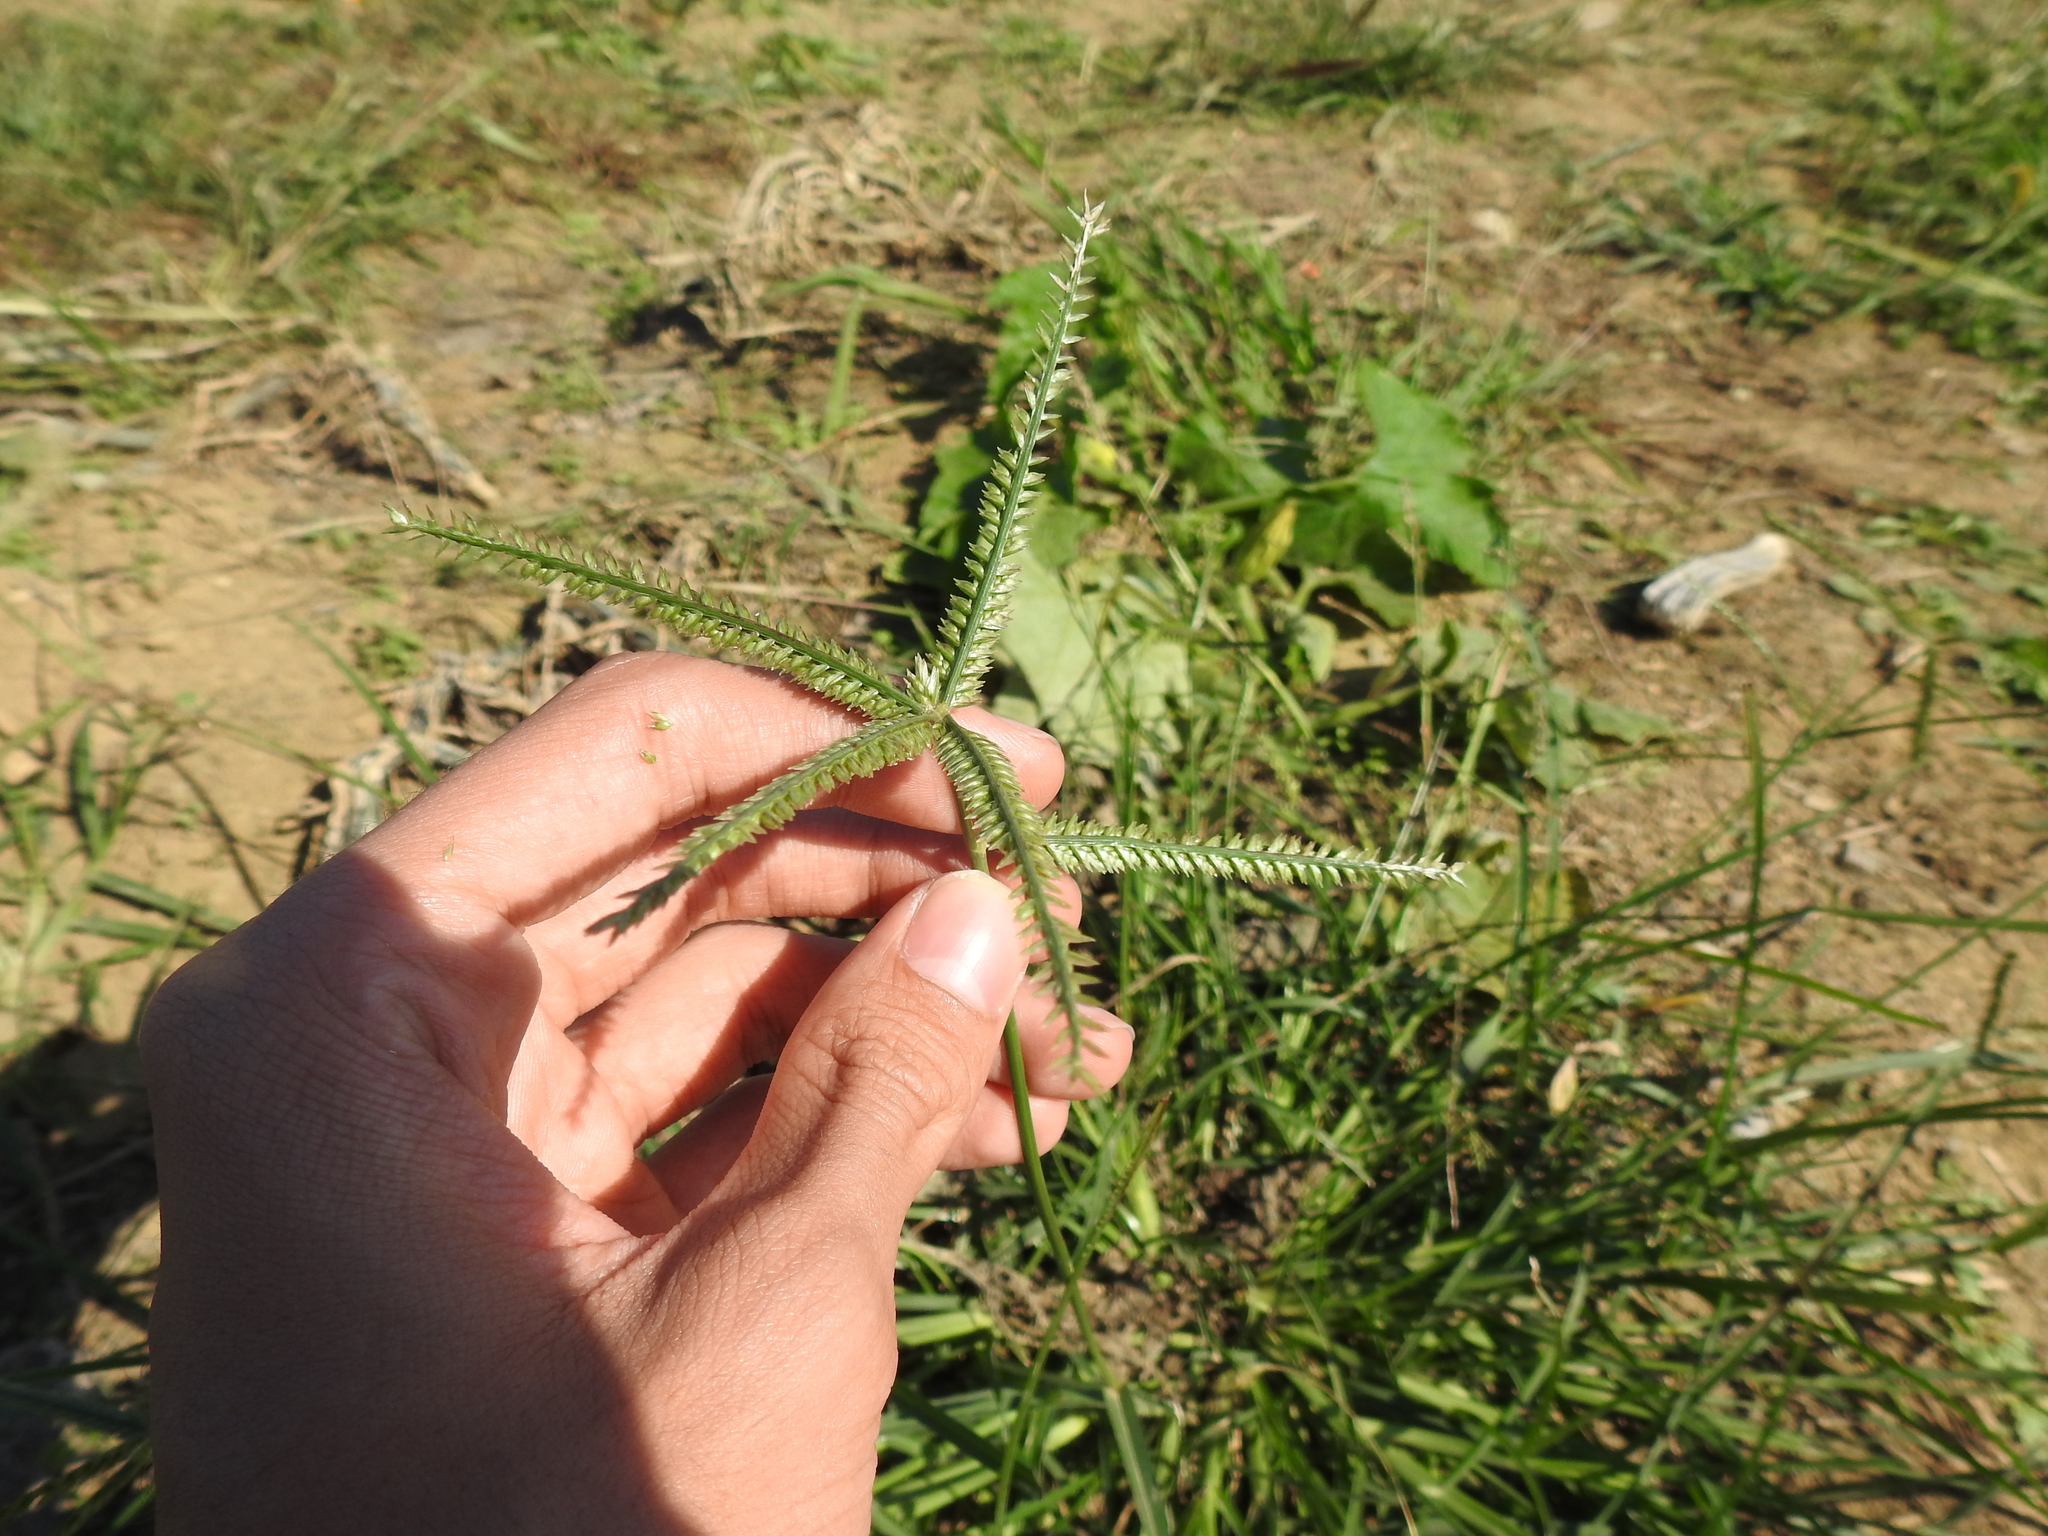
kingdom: Plantae
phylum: Tracheophyta
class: Liliopsida
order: Poales
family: Poaceae
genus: Eleusine
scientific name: Eleusine indica
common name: Yard-grass
